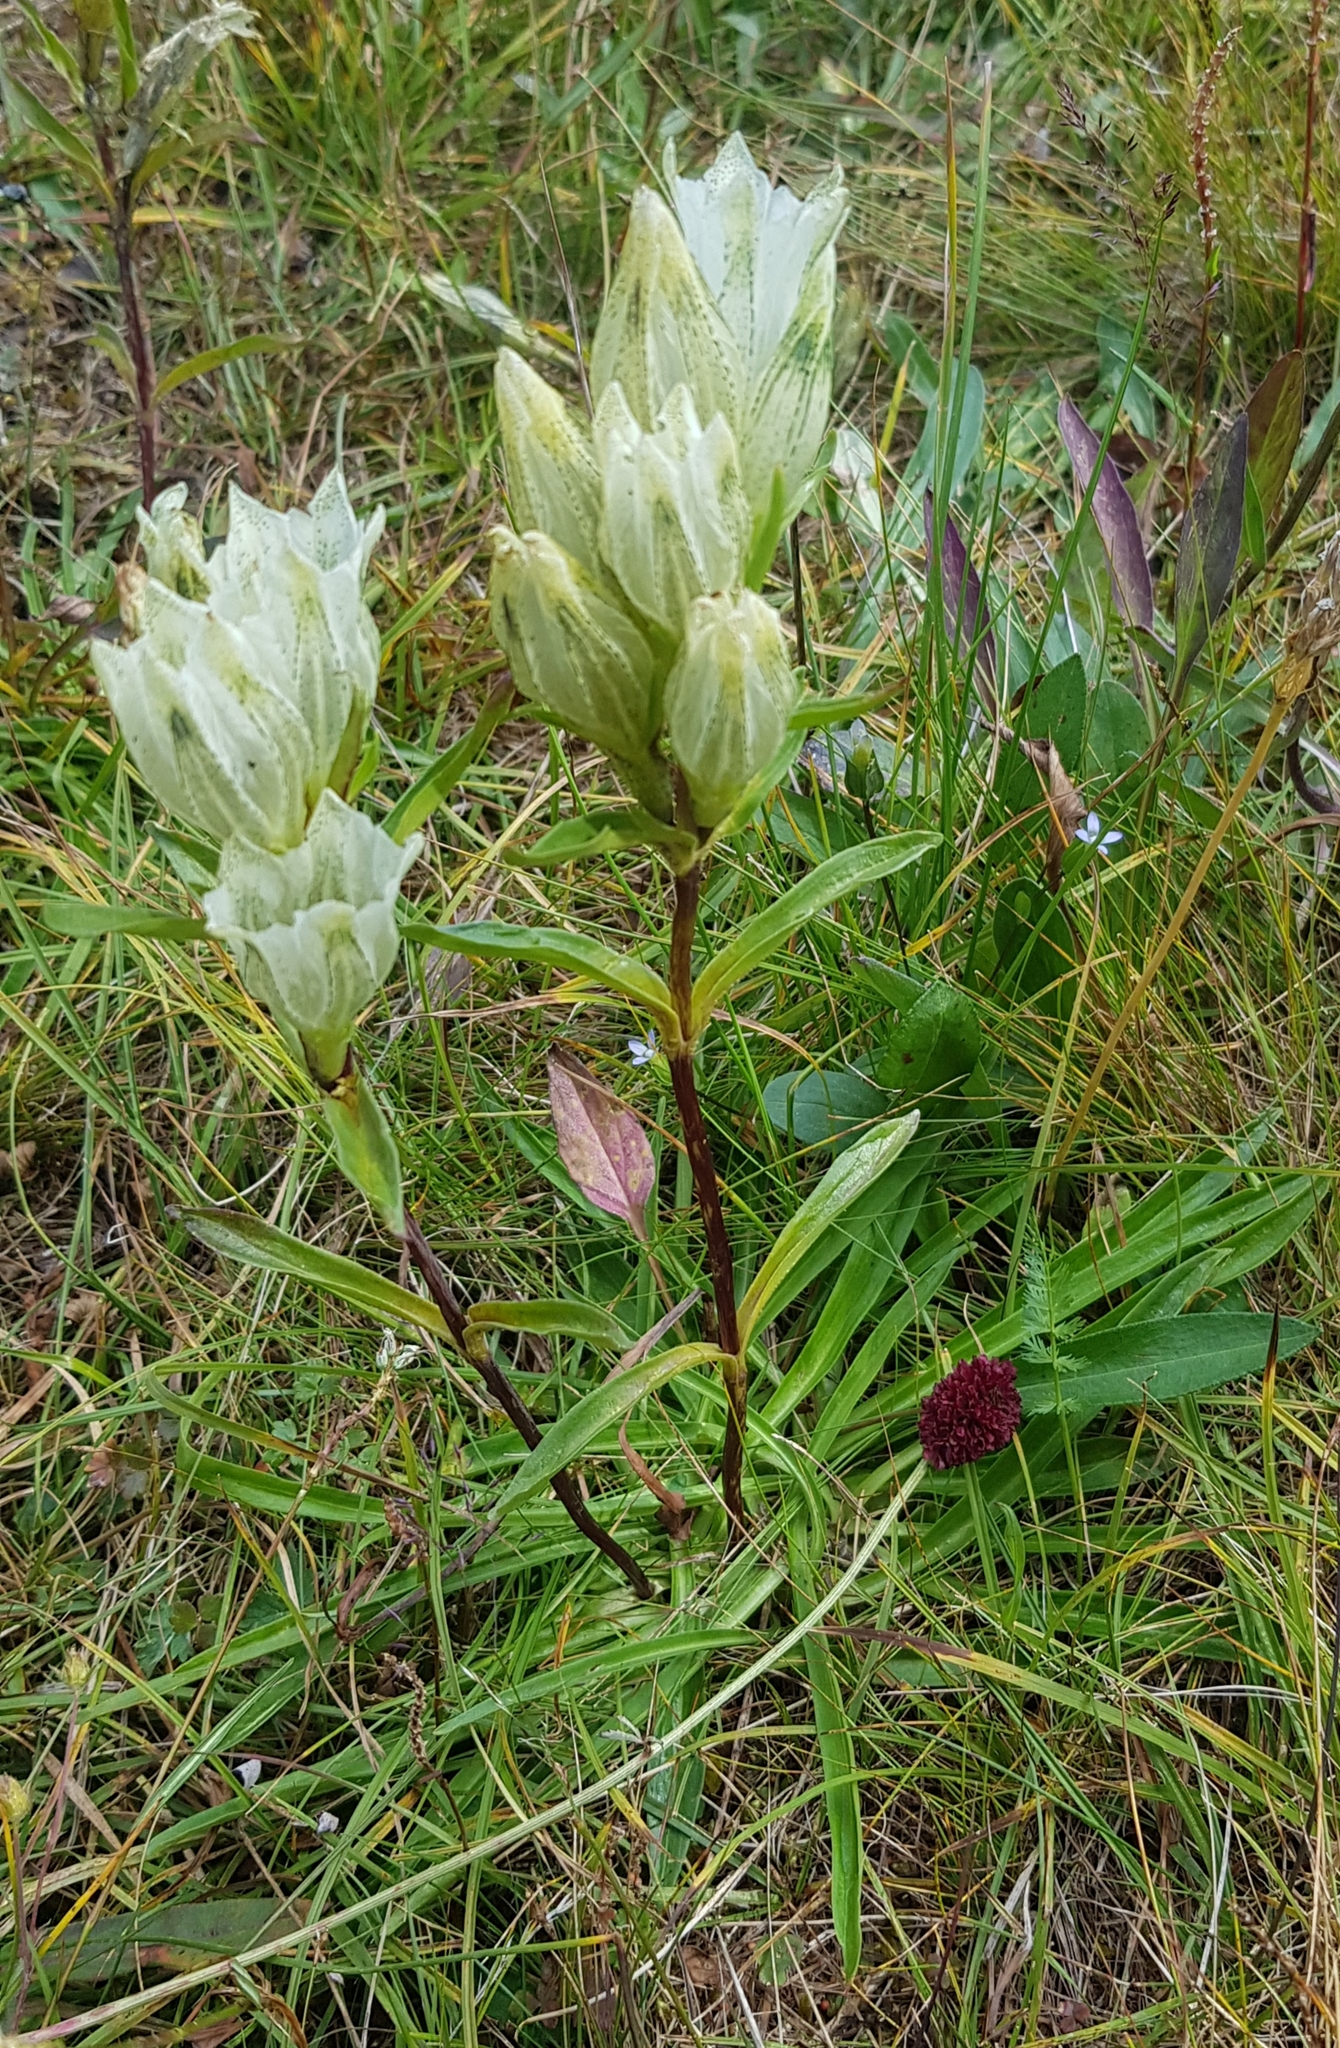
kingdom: Plantae
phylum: Tracheophyta
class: Magnoliopsida
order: Gentianales
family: Gentianaceae
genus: Gentiana
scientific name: Gentiana algida
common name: Arctic gentian
